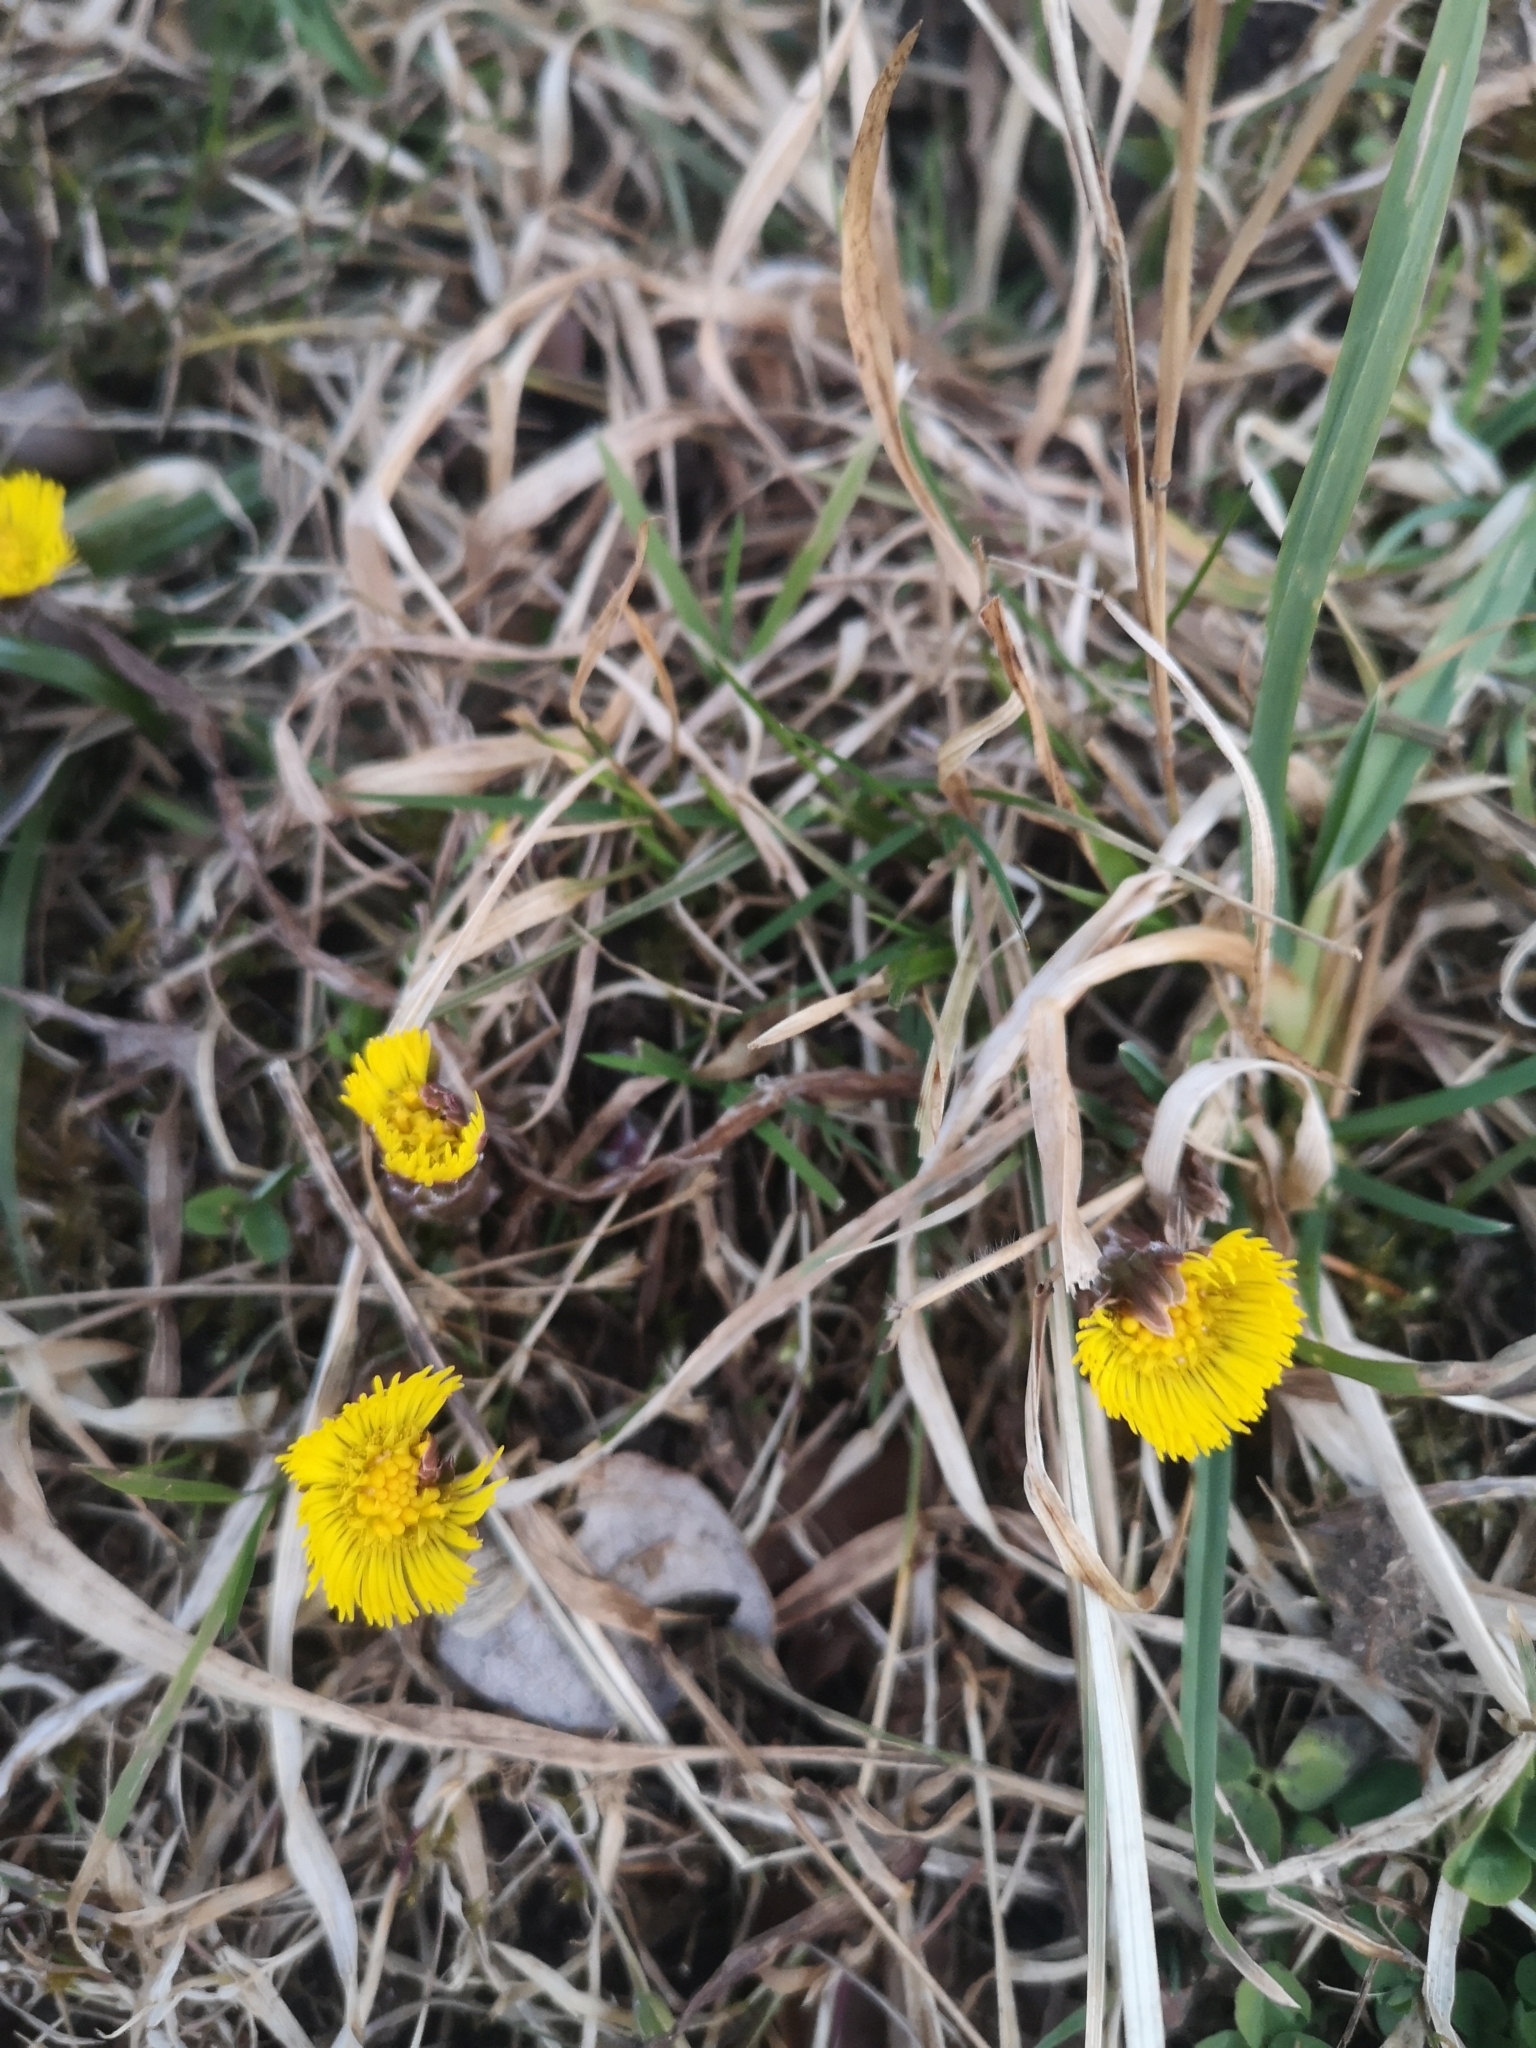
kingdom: Plantae
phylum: Tracheophyta
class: Magnoliopsida
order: Asterales
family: Asteraceae
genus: Tussilago
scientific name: Tussilago farfara
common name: Coltsfoot
